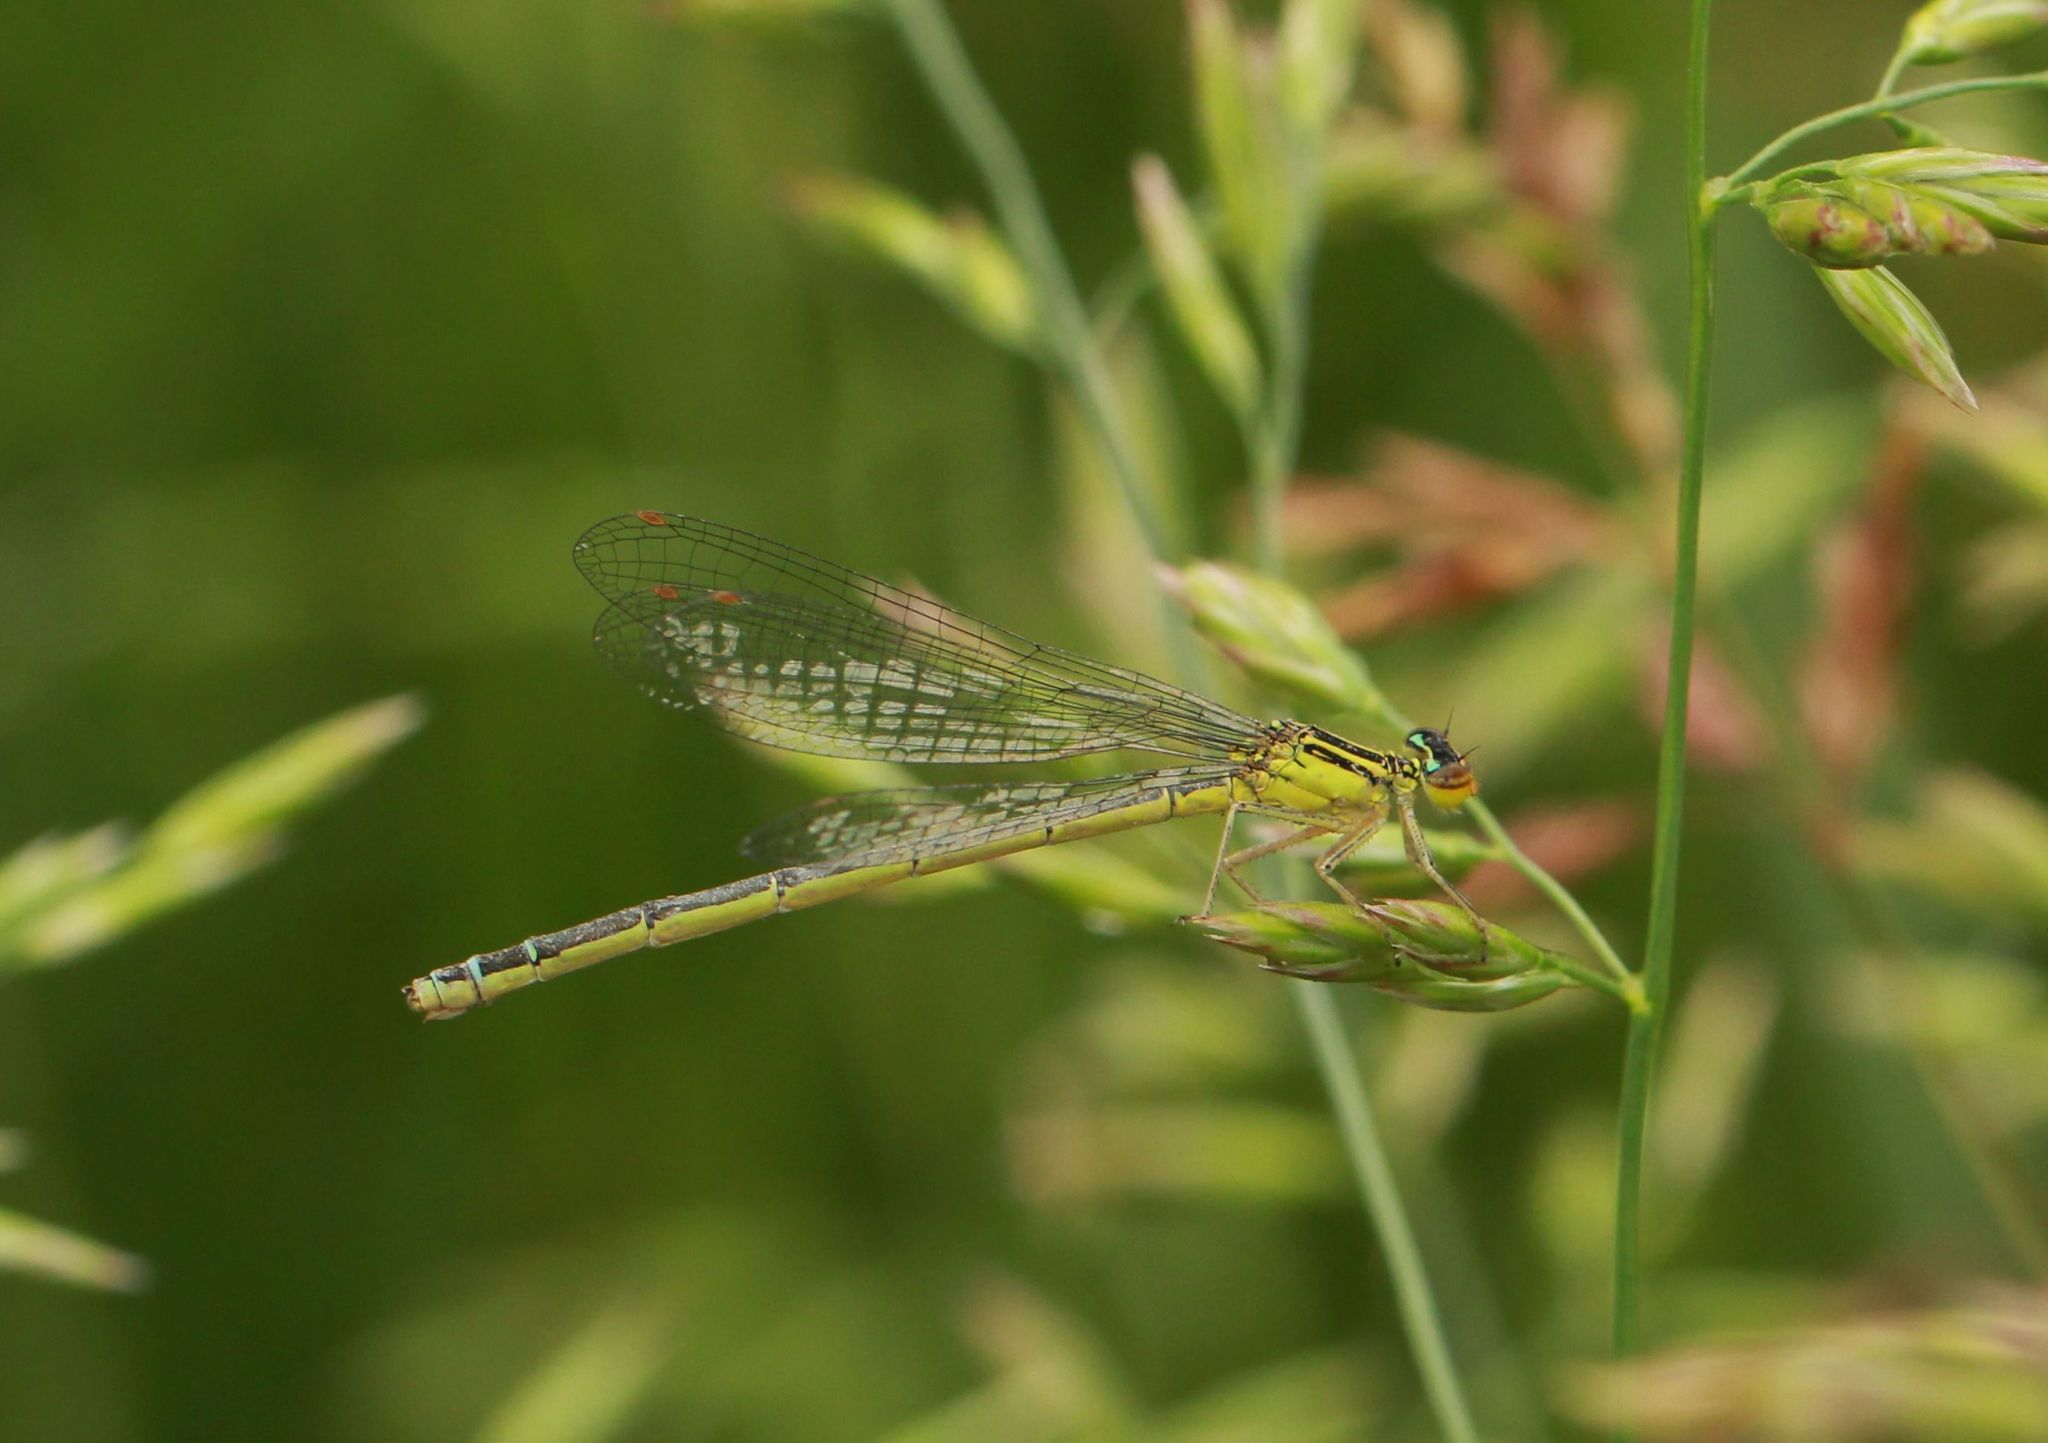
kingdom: Animalia
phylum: Arthropoda
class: Insecta
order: Odonata
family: Coenagrionidae
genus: Enallagma
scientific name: Enallagma antennatum
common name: Rainbow bluet
